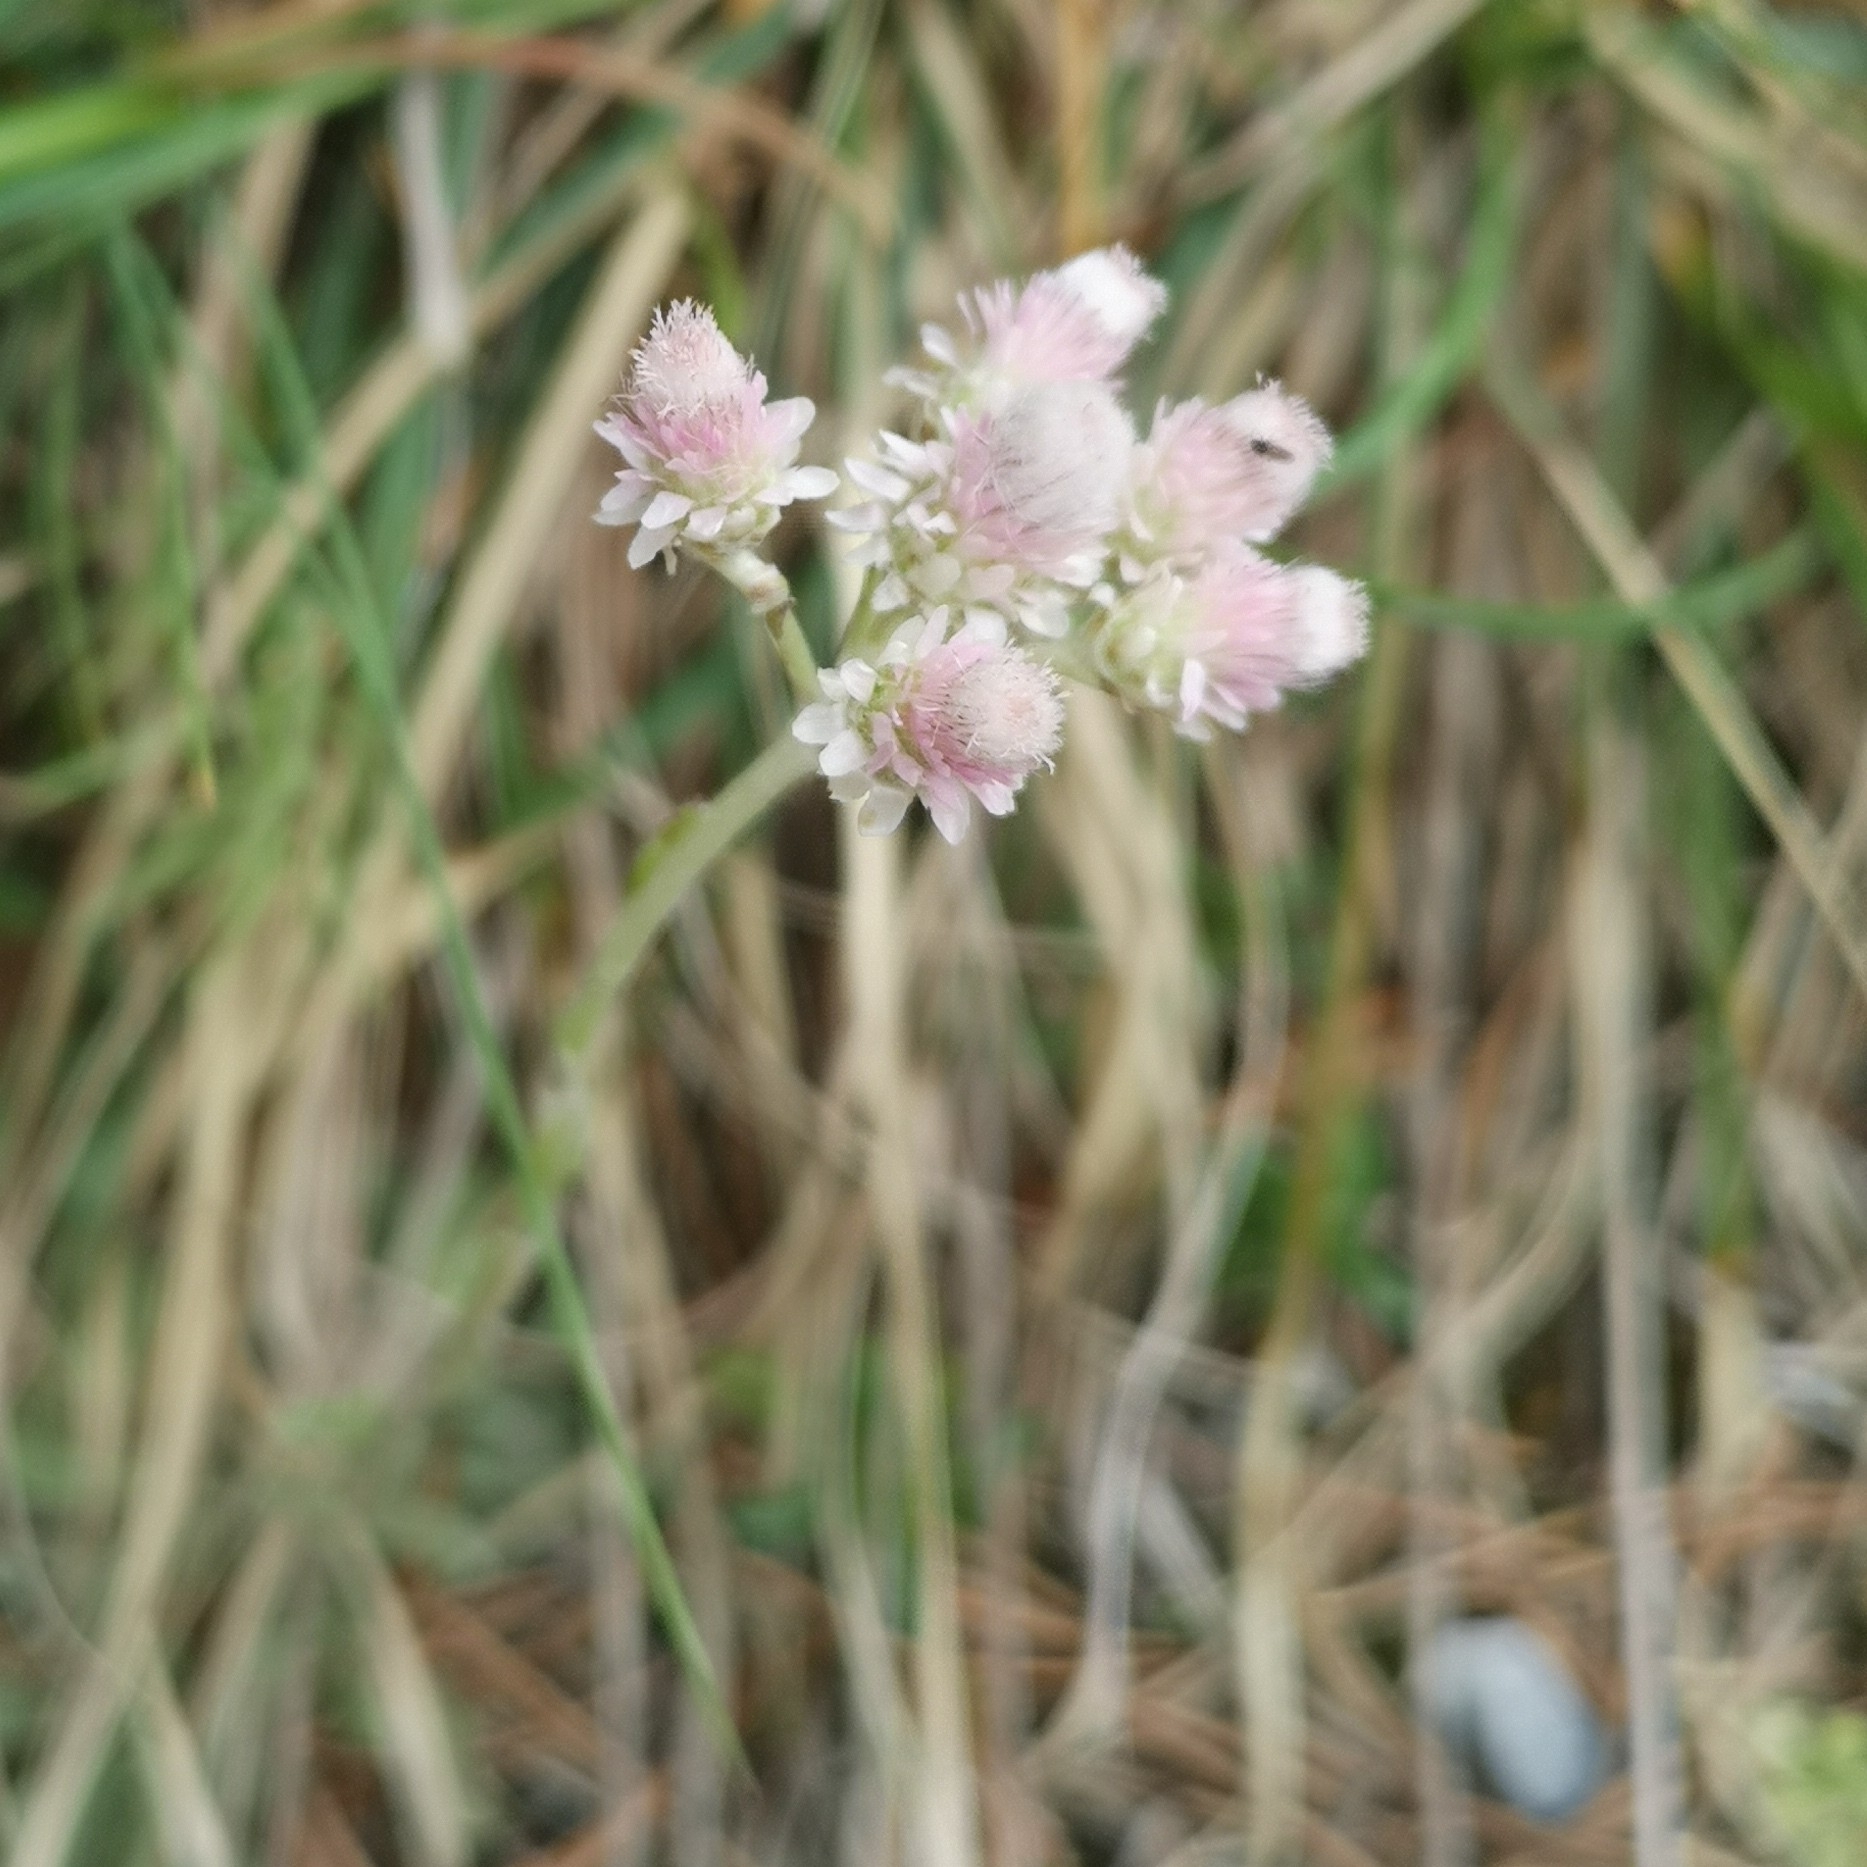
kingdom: Plantae
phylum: Tracheophyta
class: Magnoliopsida
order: Asterales
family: Asteraceae
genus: Antennaria
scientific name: Antennaria dioica
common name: Mountain everlasting
